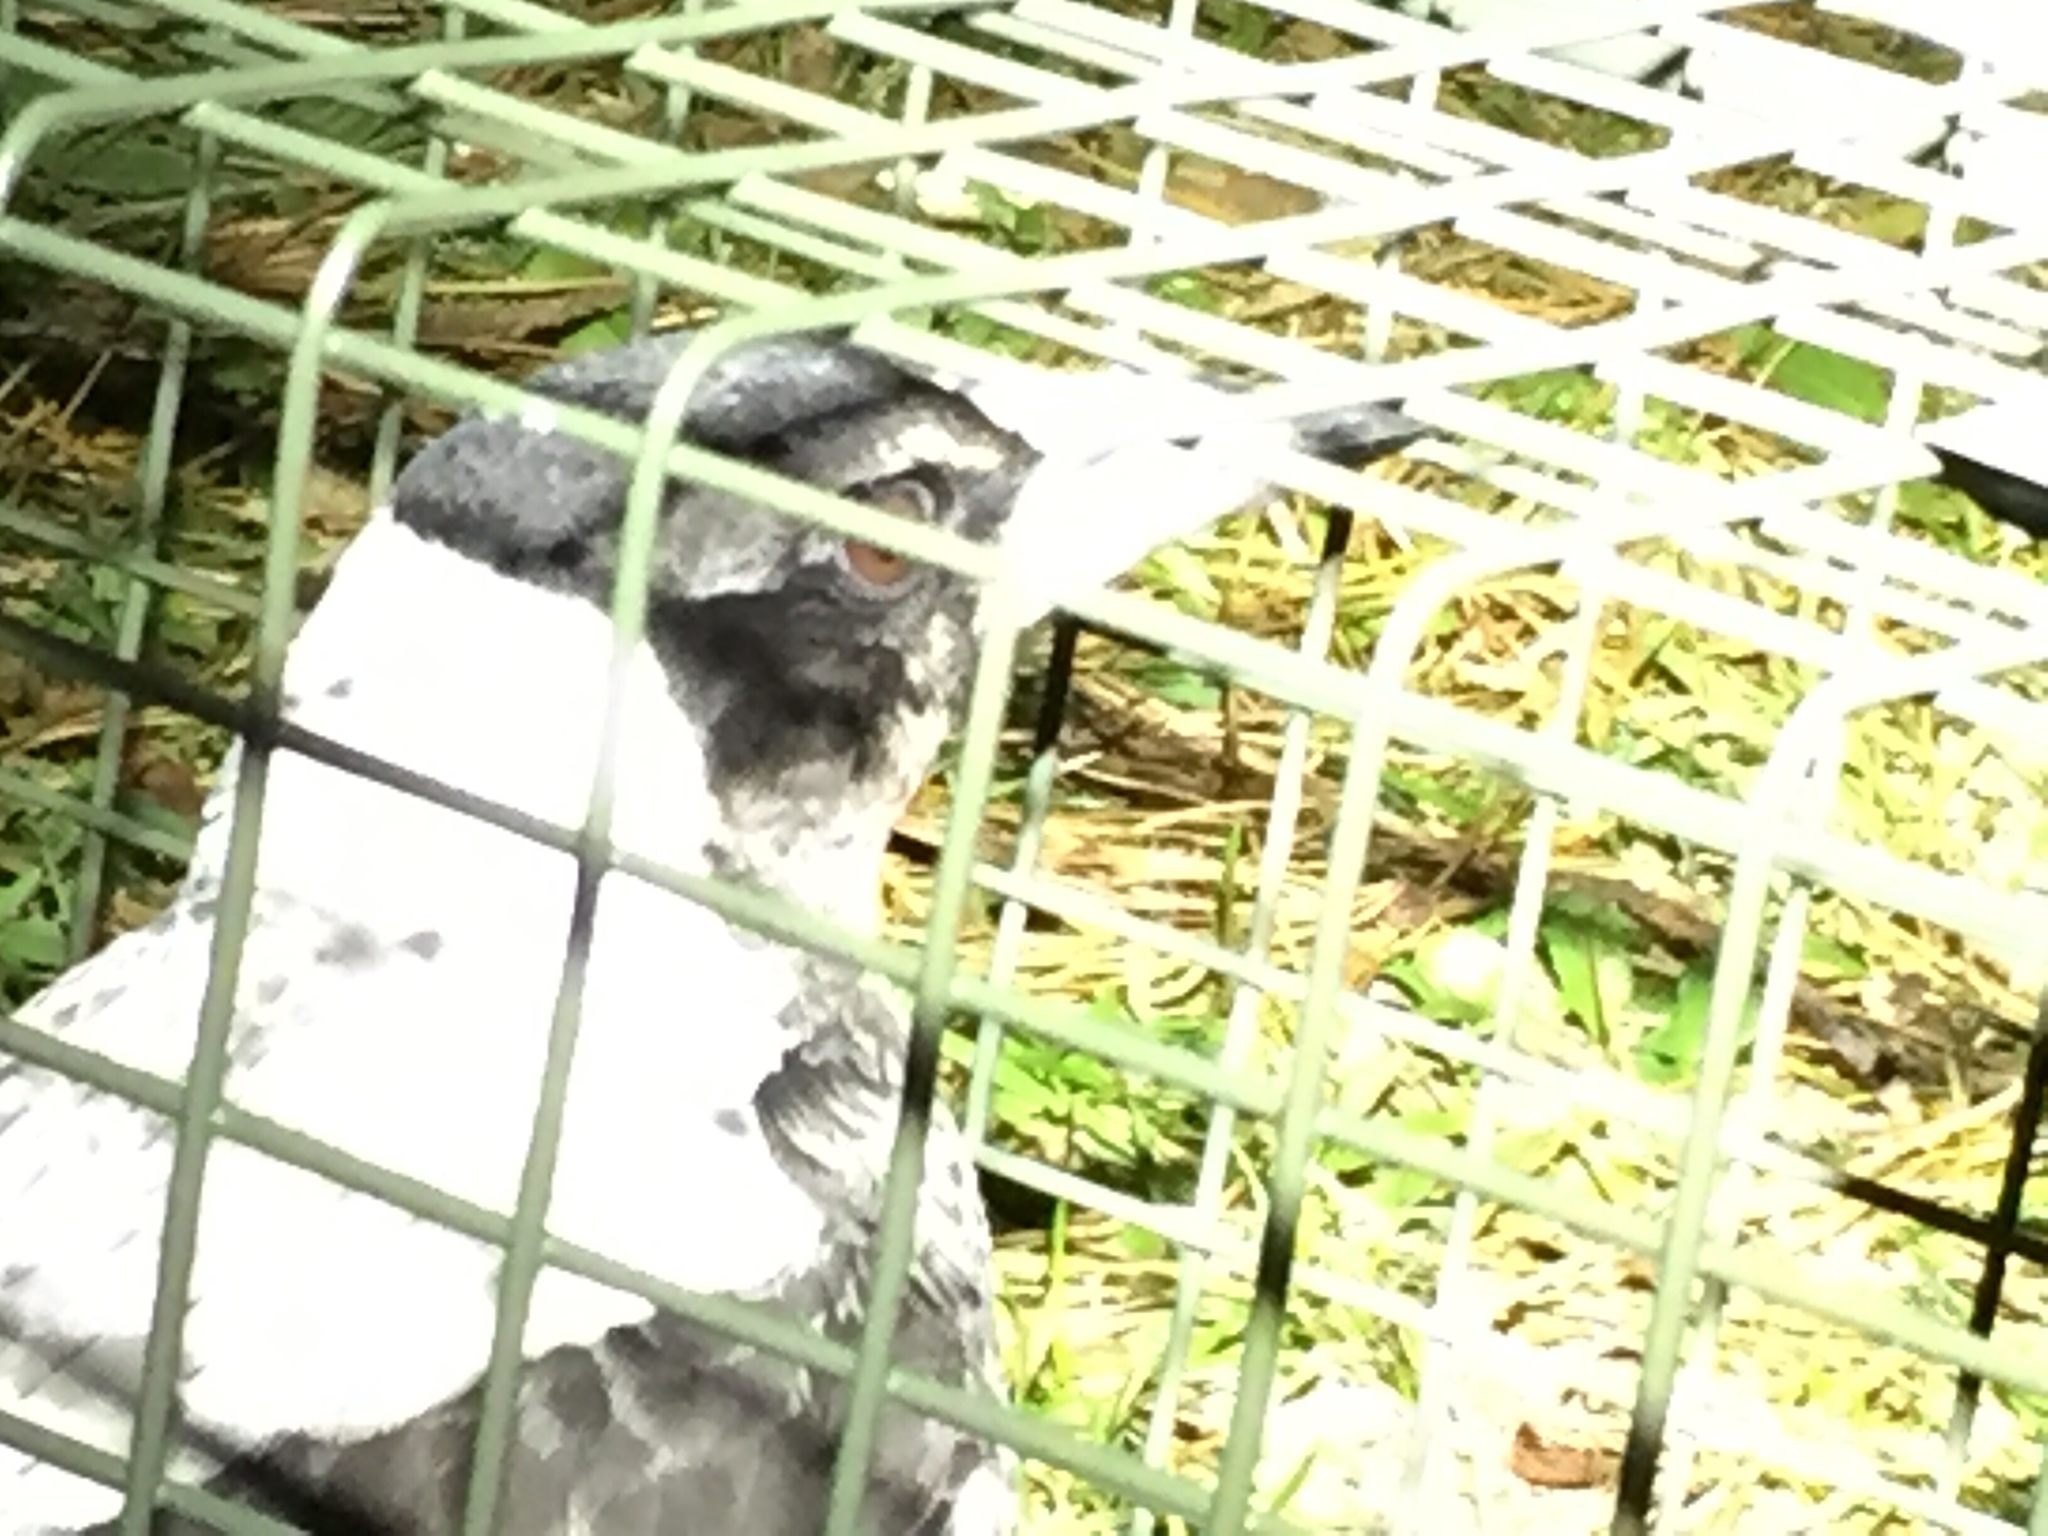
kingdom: Animalia
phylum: Chordata
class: Aves
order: Passeriformes
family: Cracticidae
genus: Gymnorhina
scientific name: Gymnorhina tibicen
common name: Australian magpie
